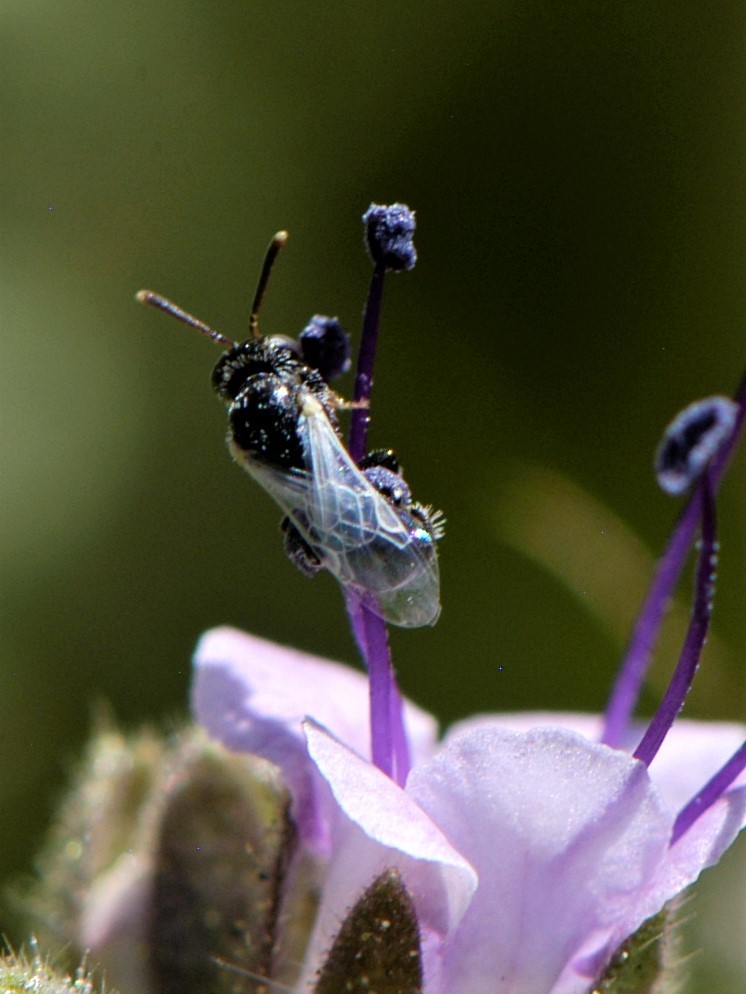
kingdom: Animalia
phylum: Arthropoda
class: Insecta
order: Hymenoptera
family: Andrenidae
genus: Perdita
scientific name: Perdita marcialis
